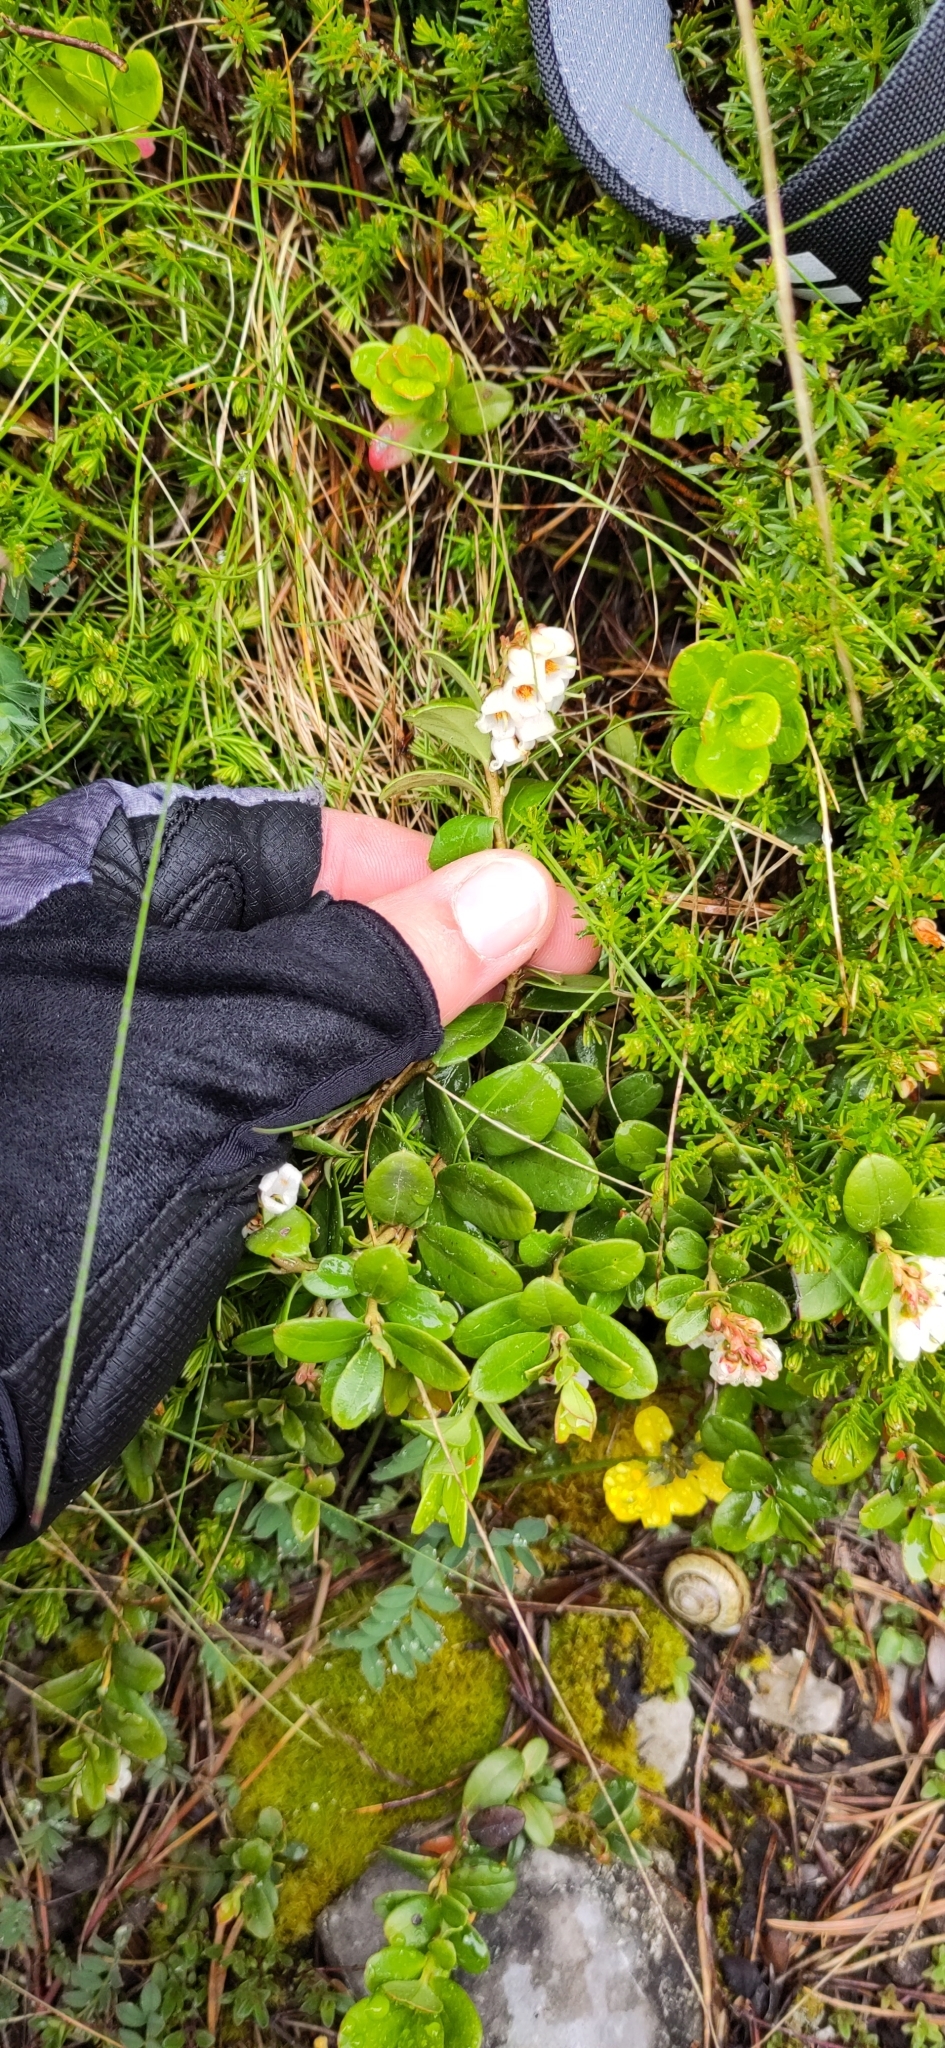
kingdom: Plantae
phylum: Tracheophyta
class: Magnoliopsida
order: Ericales
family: Ericaceae
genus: Vaccinium
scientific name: Vaccinium vitis-idaea
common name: Cowberry
